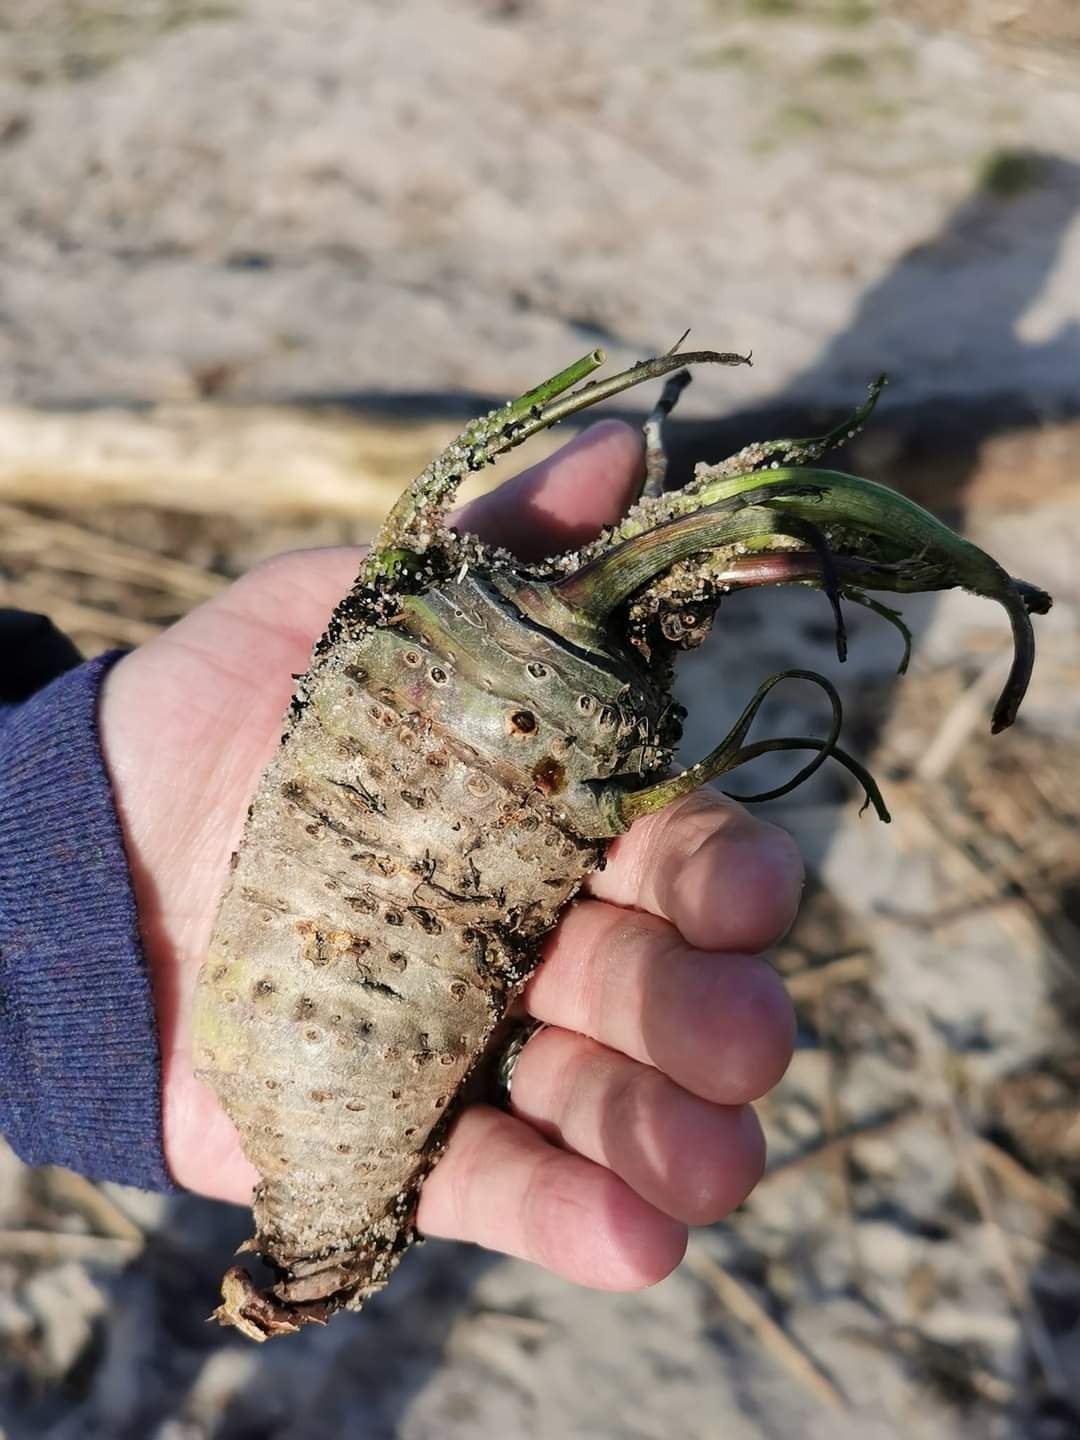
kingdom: Plantae
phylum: Tracheophyta
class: Magnoliopsida
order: Apiales
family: Apiaceae
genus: Cicuta
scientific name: Cicuta virosa
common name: Cowbane
